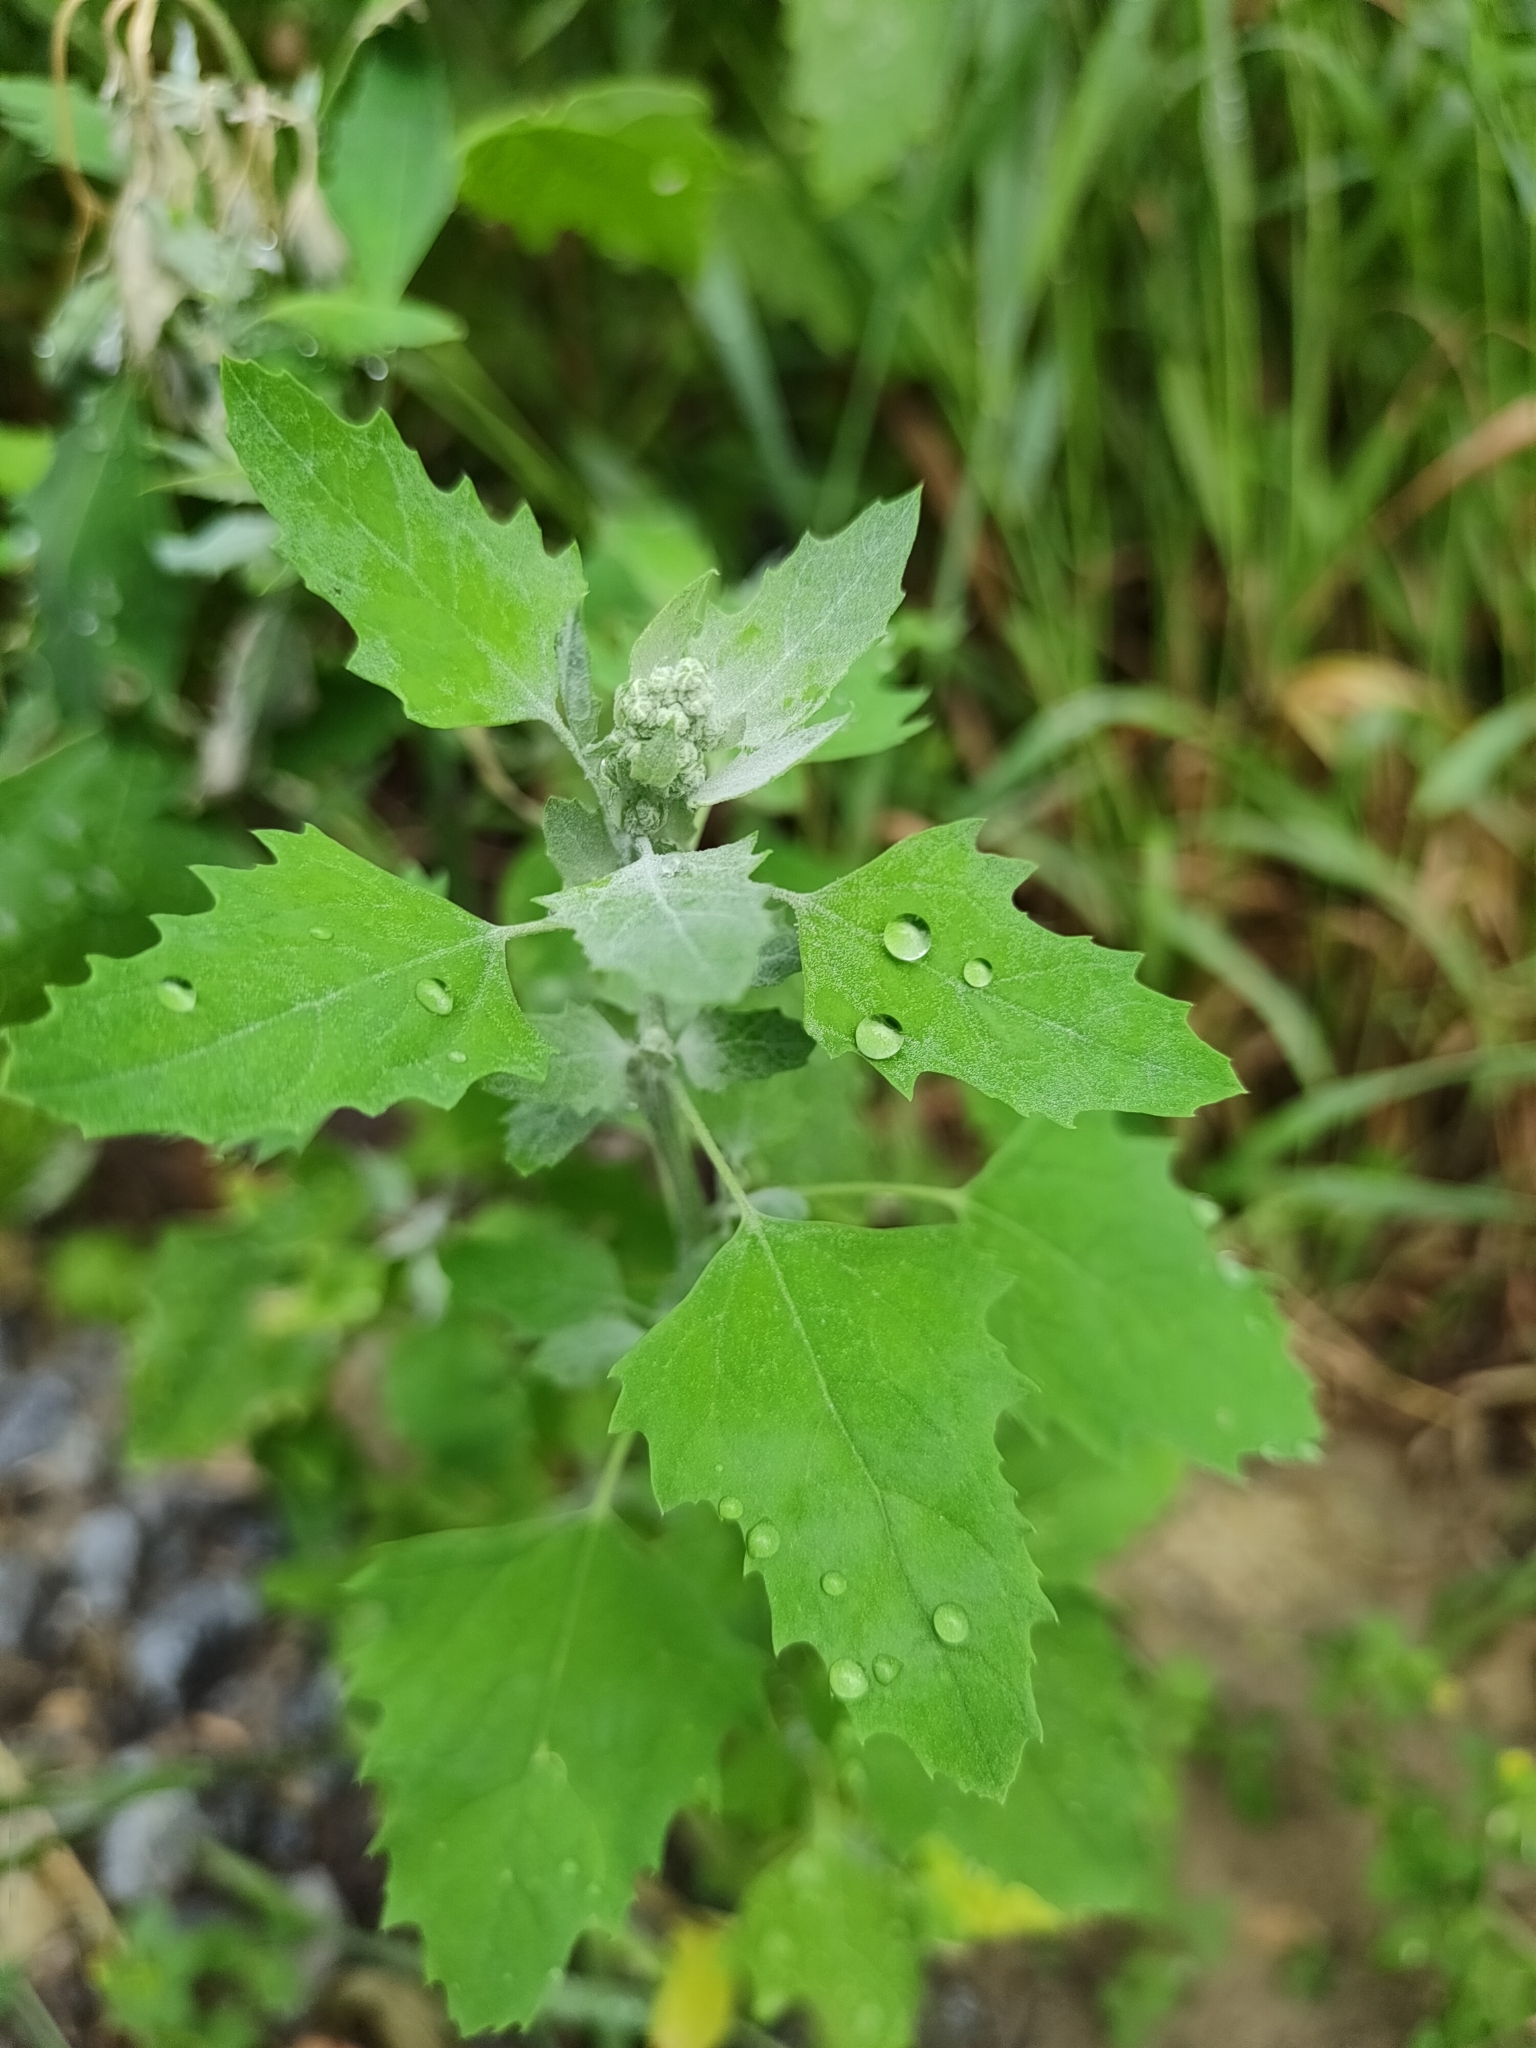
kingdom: Plantae
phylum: Tracheophyta
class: Magnoliopsida
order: Caryophyllales
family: Amaranthaceae
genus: Chenopodium
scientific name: Chenopodium album
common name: Fat-hen
